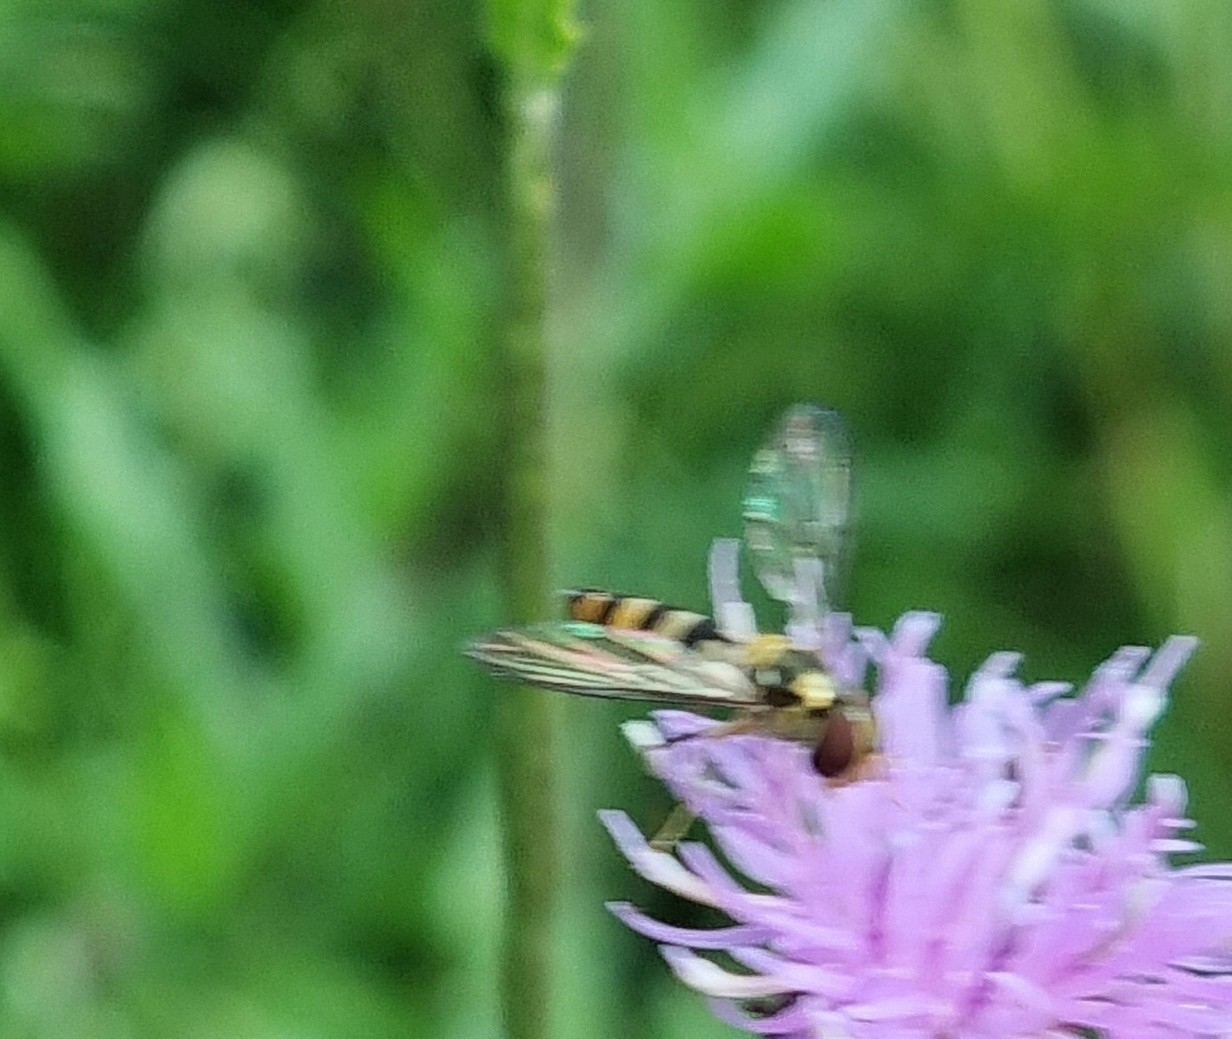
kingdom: Animalia
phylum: Arthropoda
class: Insecta
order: Diptera
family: Syrphidae
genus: Meliscaeva
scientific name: Meliscaeva cinctella
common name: American thintail fly
